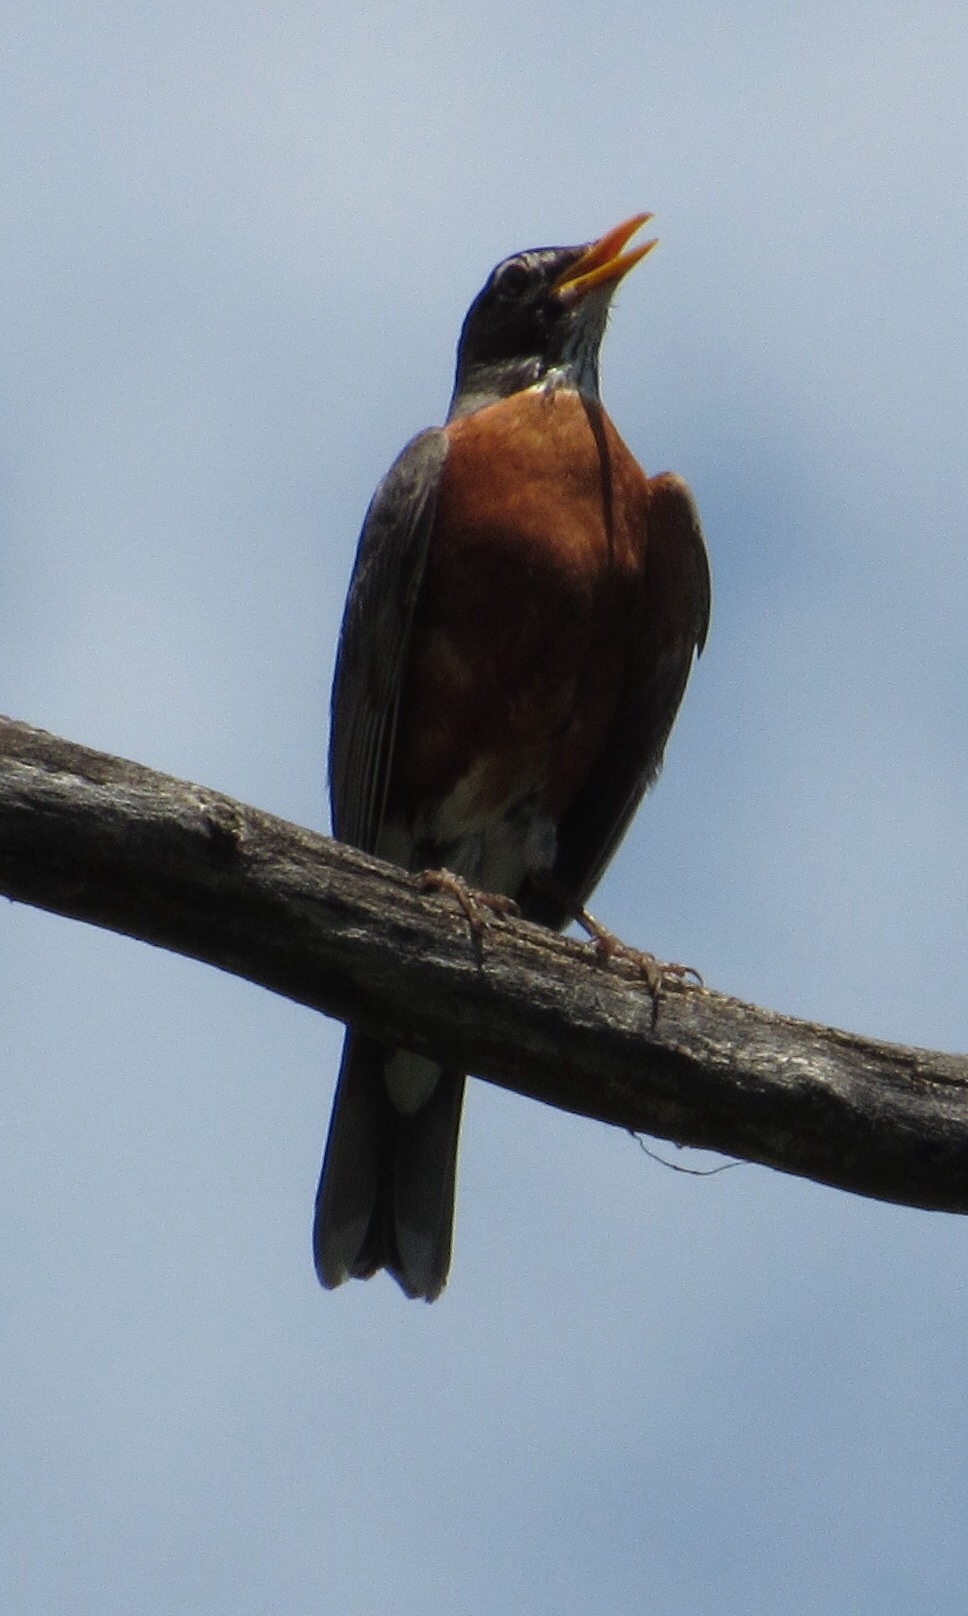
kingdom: Animalia
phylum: Chordata
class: Aves
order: Passeriformes
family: Turdidae
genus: Turdus
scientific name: Turdus migratorius
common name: American robin
